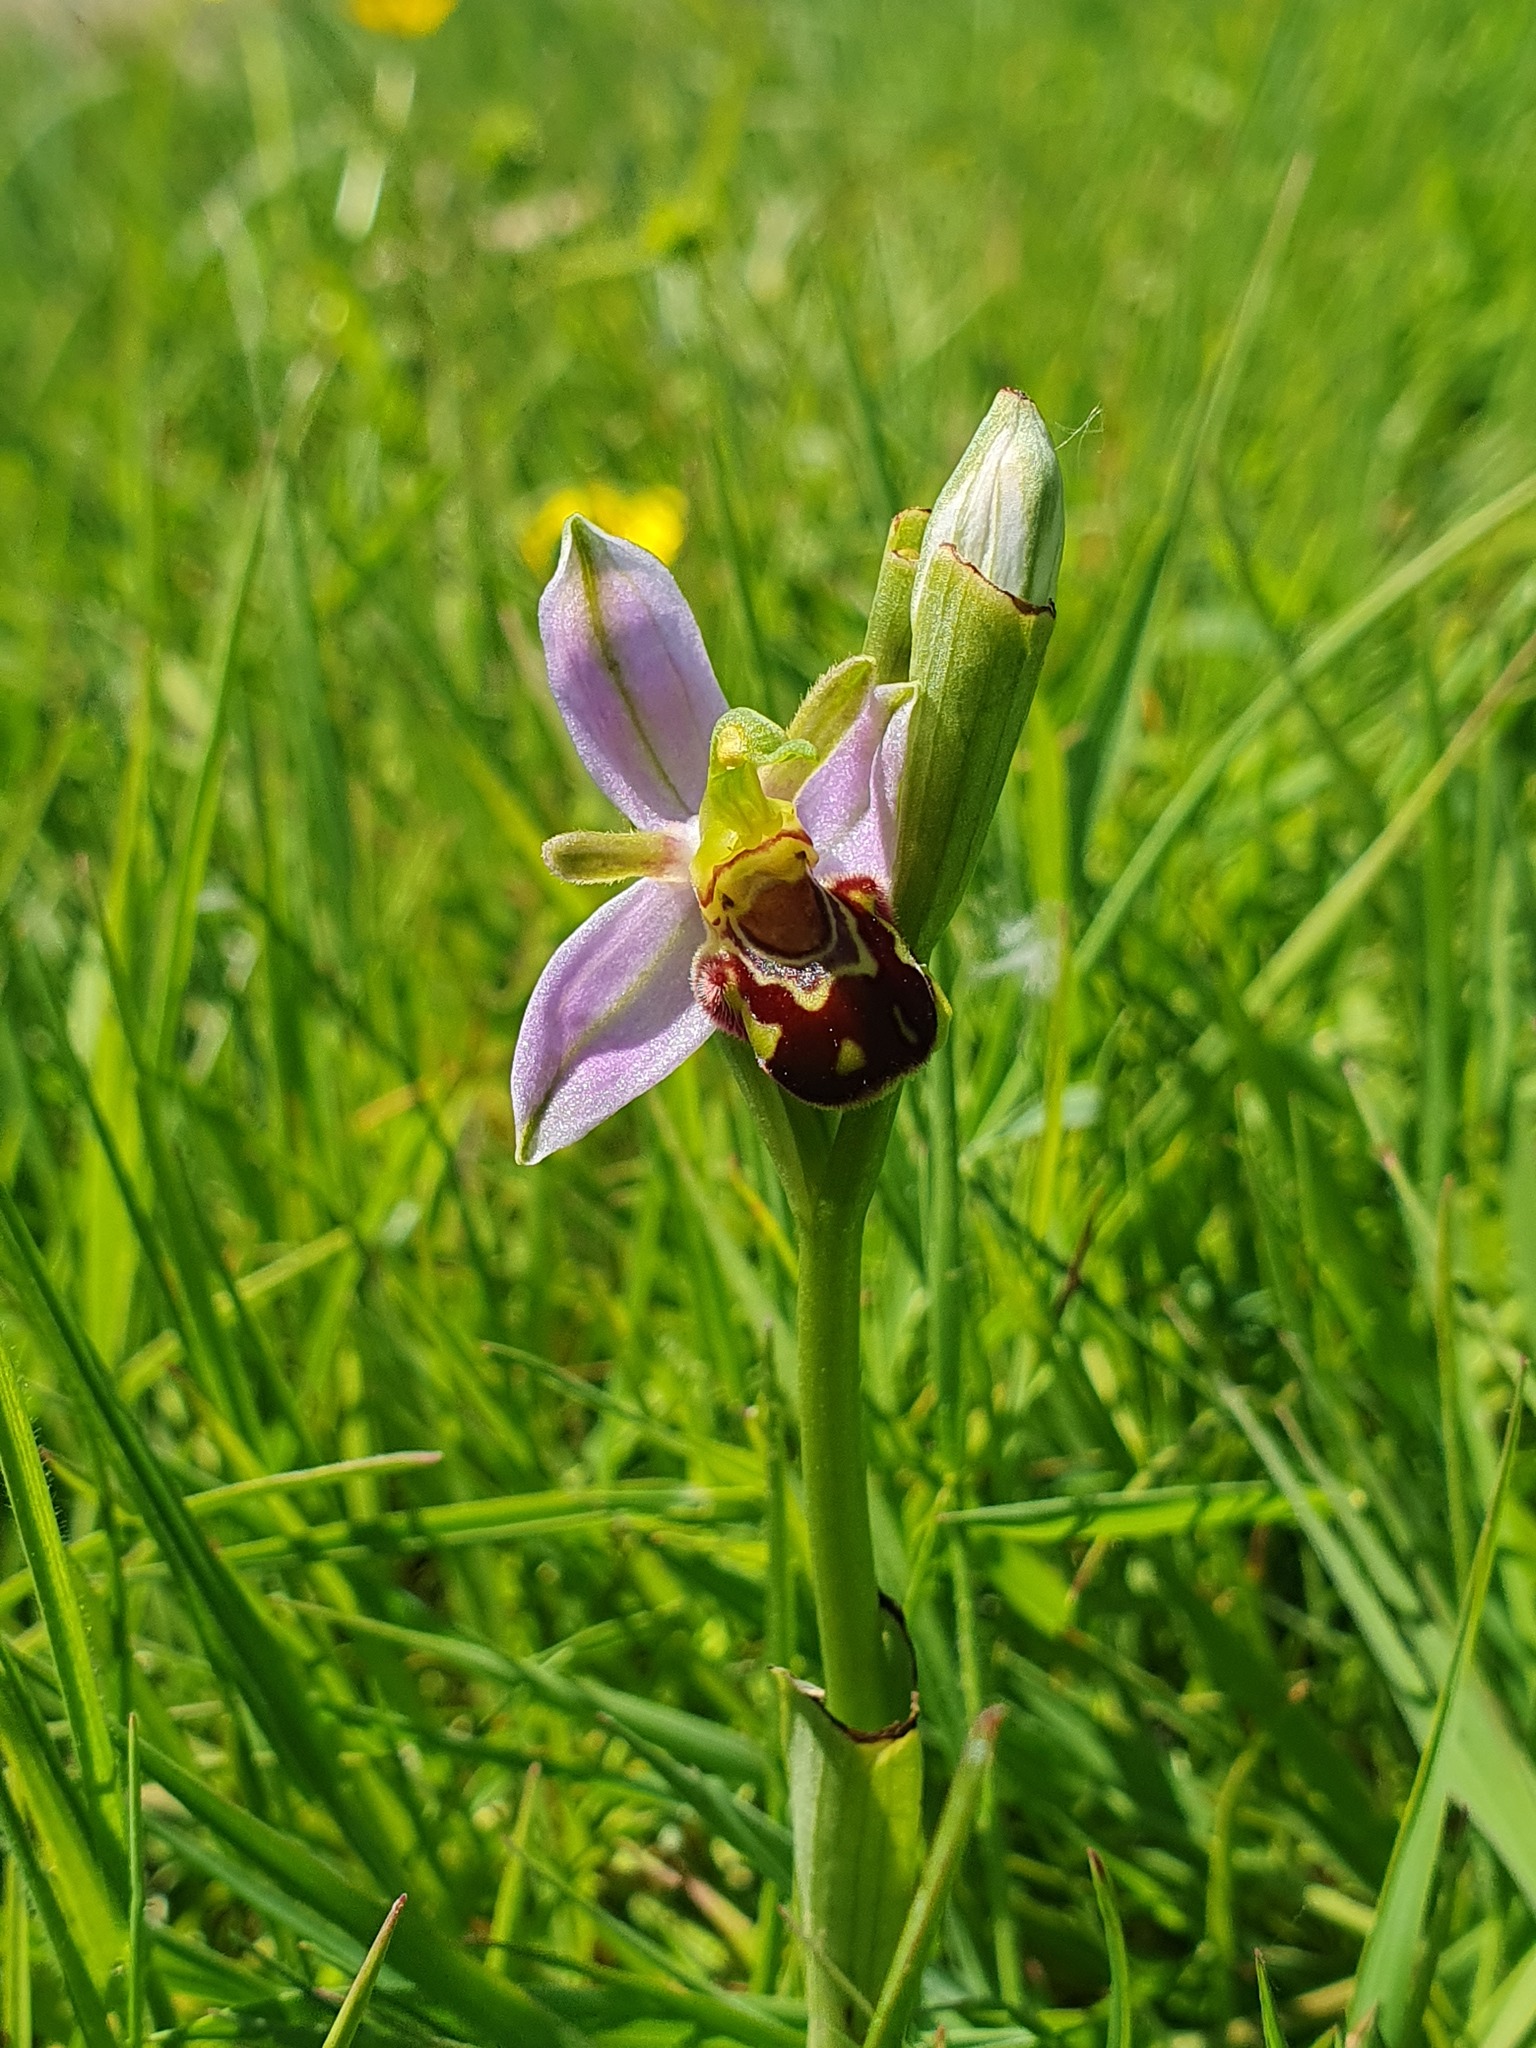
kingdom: Plantae
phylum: Tracheophyta
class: Liliopsida
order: Asparagales
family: Orchidaceae
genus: Ophrys
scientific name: Ophrys apifera
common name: Bee orchid
